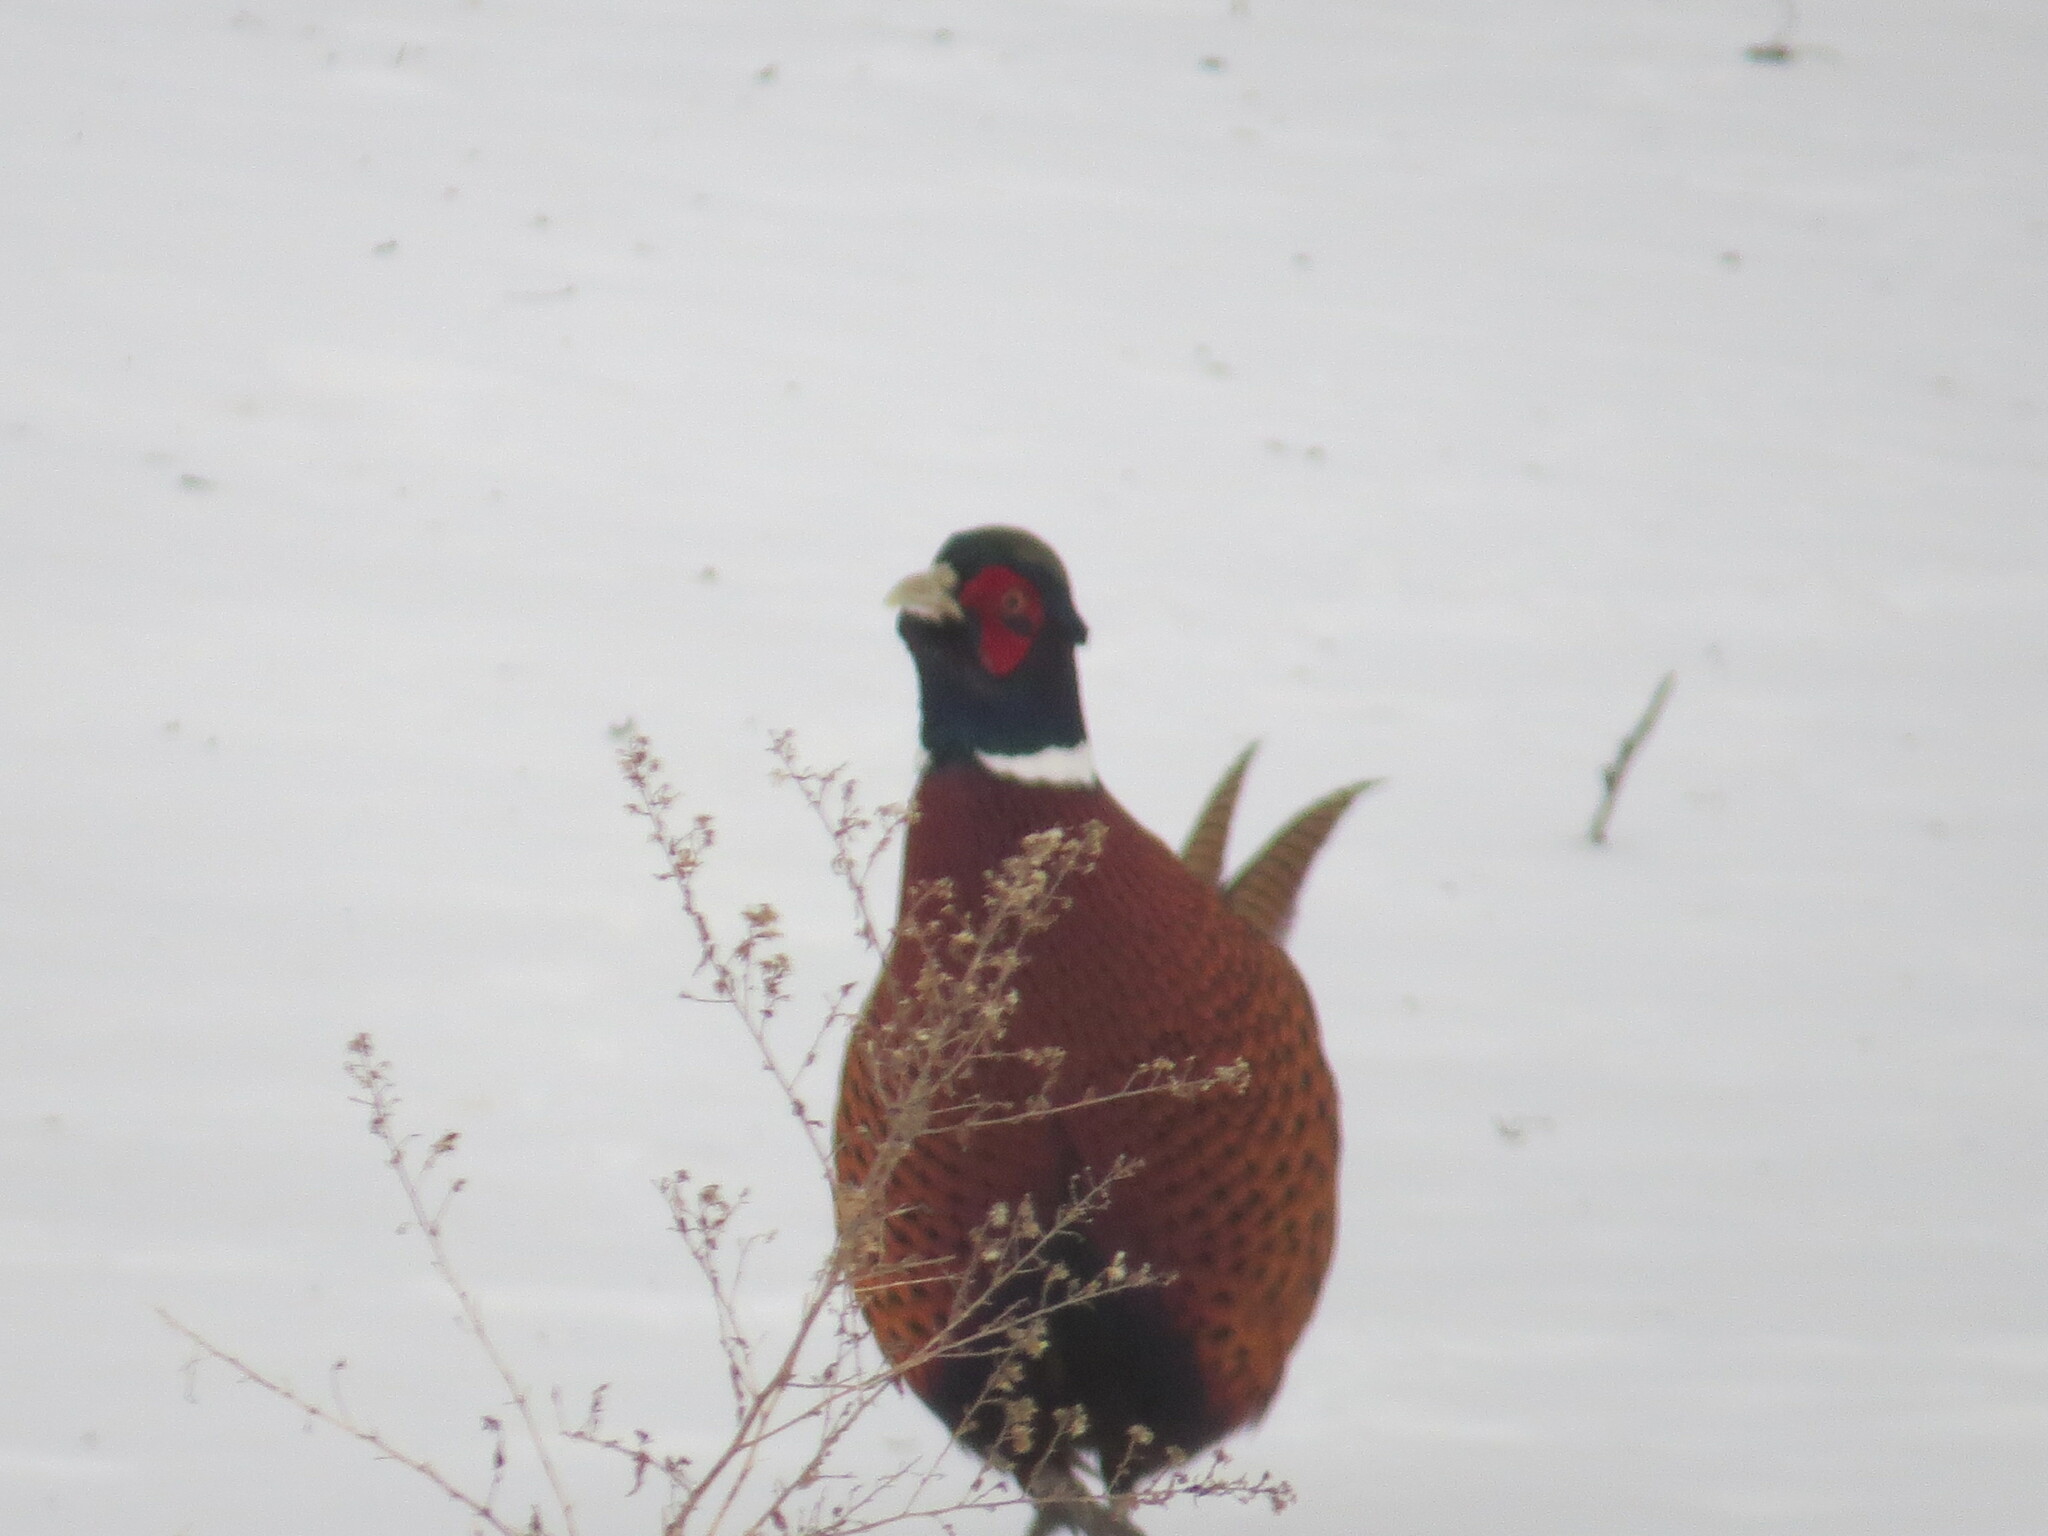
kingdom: Animalia
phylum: Chordata
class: Aves
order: Galliformes
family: Phasianidae
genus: Phasianus
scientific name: Phasianus colchicus
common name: Common pheasant
